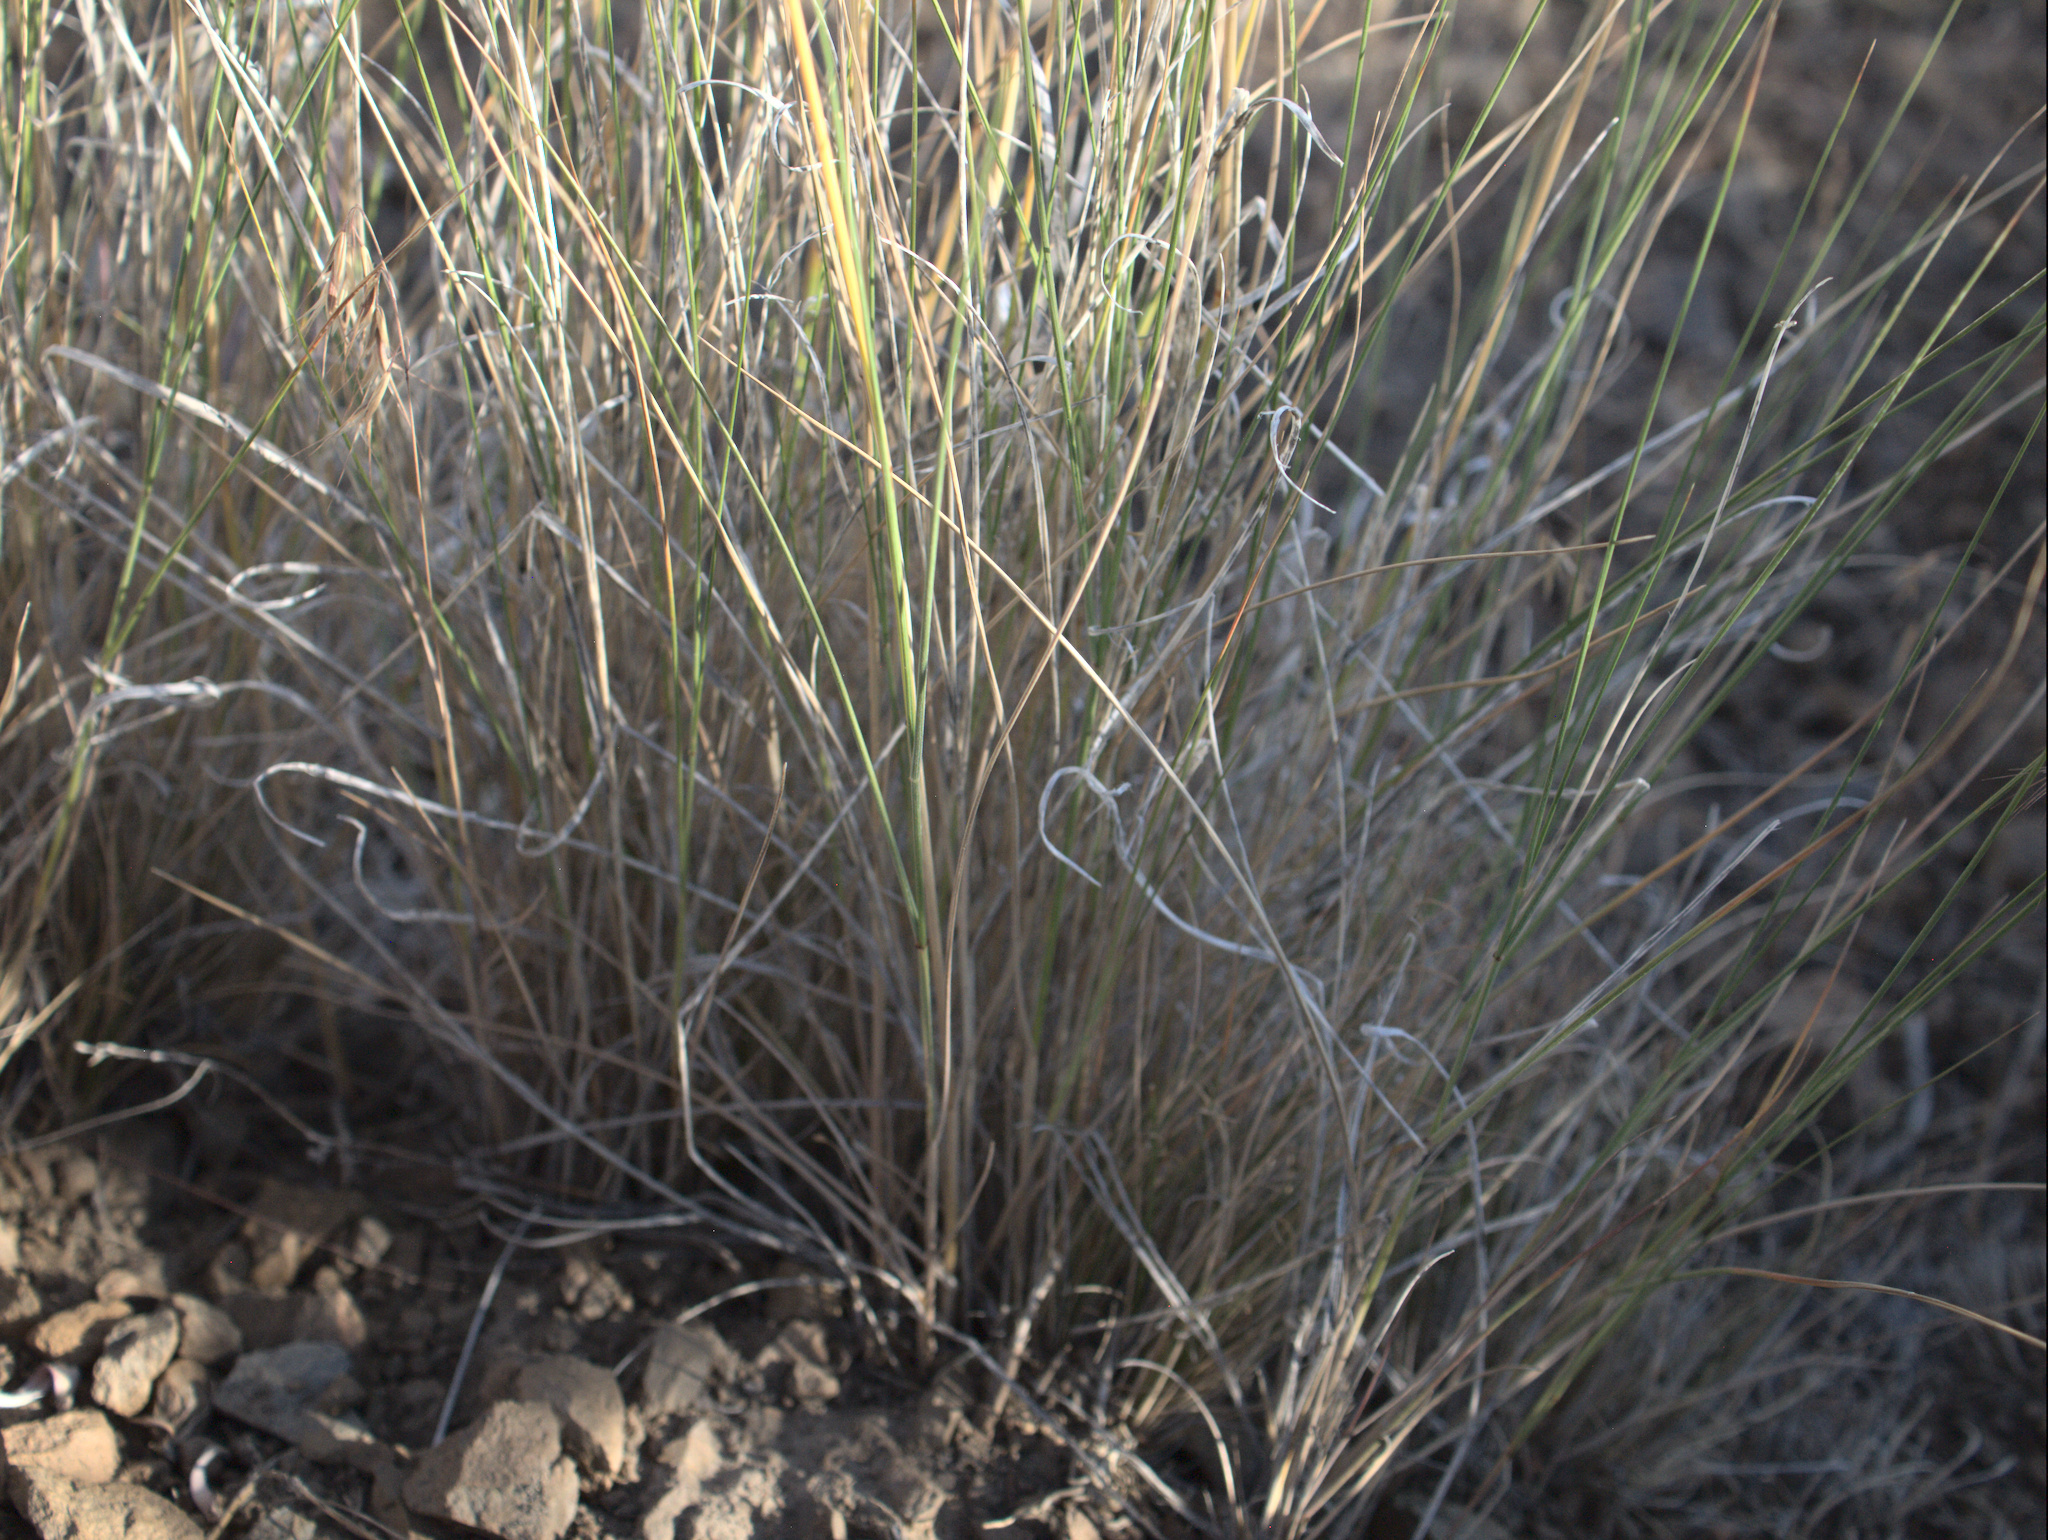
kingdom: Plantae
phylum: Tracheophyta
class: Liliopsida
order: Poales
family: Poaceae
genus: Pseudoroegneria
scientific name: Pseudoroegneria spicata
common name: Bluebunch wheatgrass
